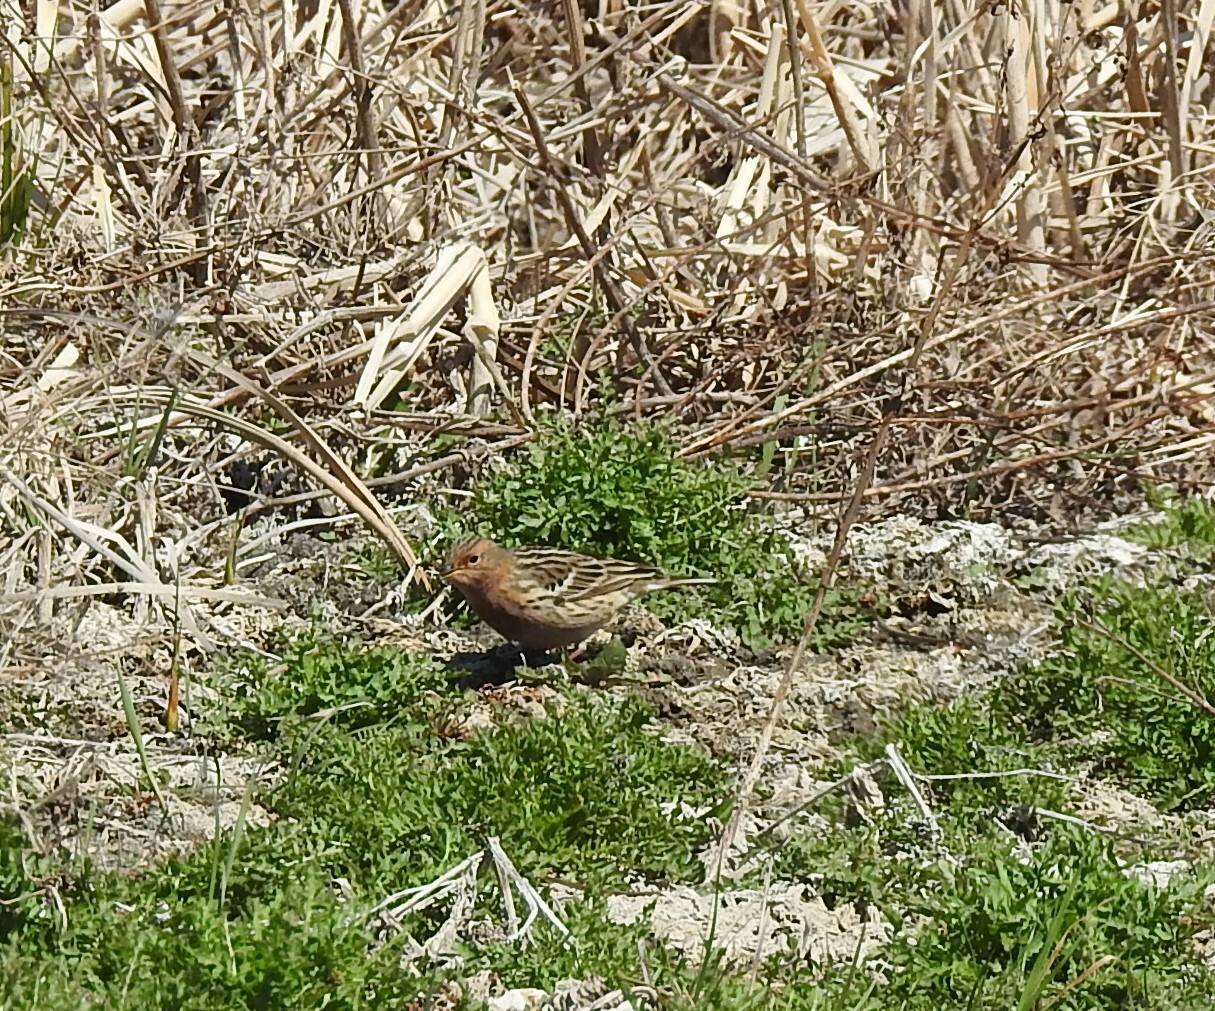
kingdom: Animalia
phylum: Chordata
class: Aves
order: Passeriformes
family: Motacillidae
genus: Anthus
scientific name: Anthus cervinus
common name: Red-throated pipit
